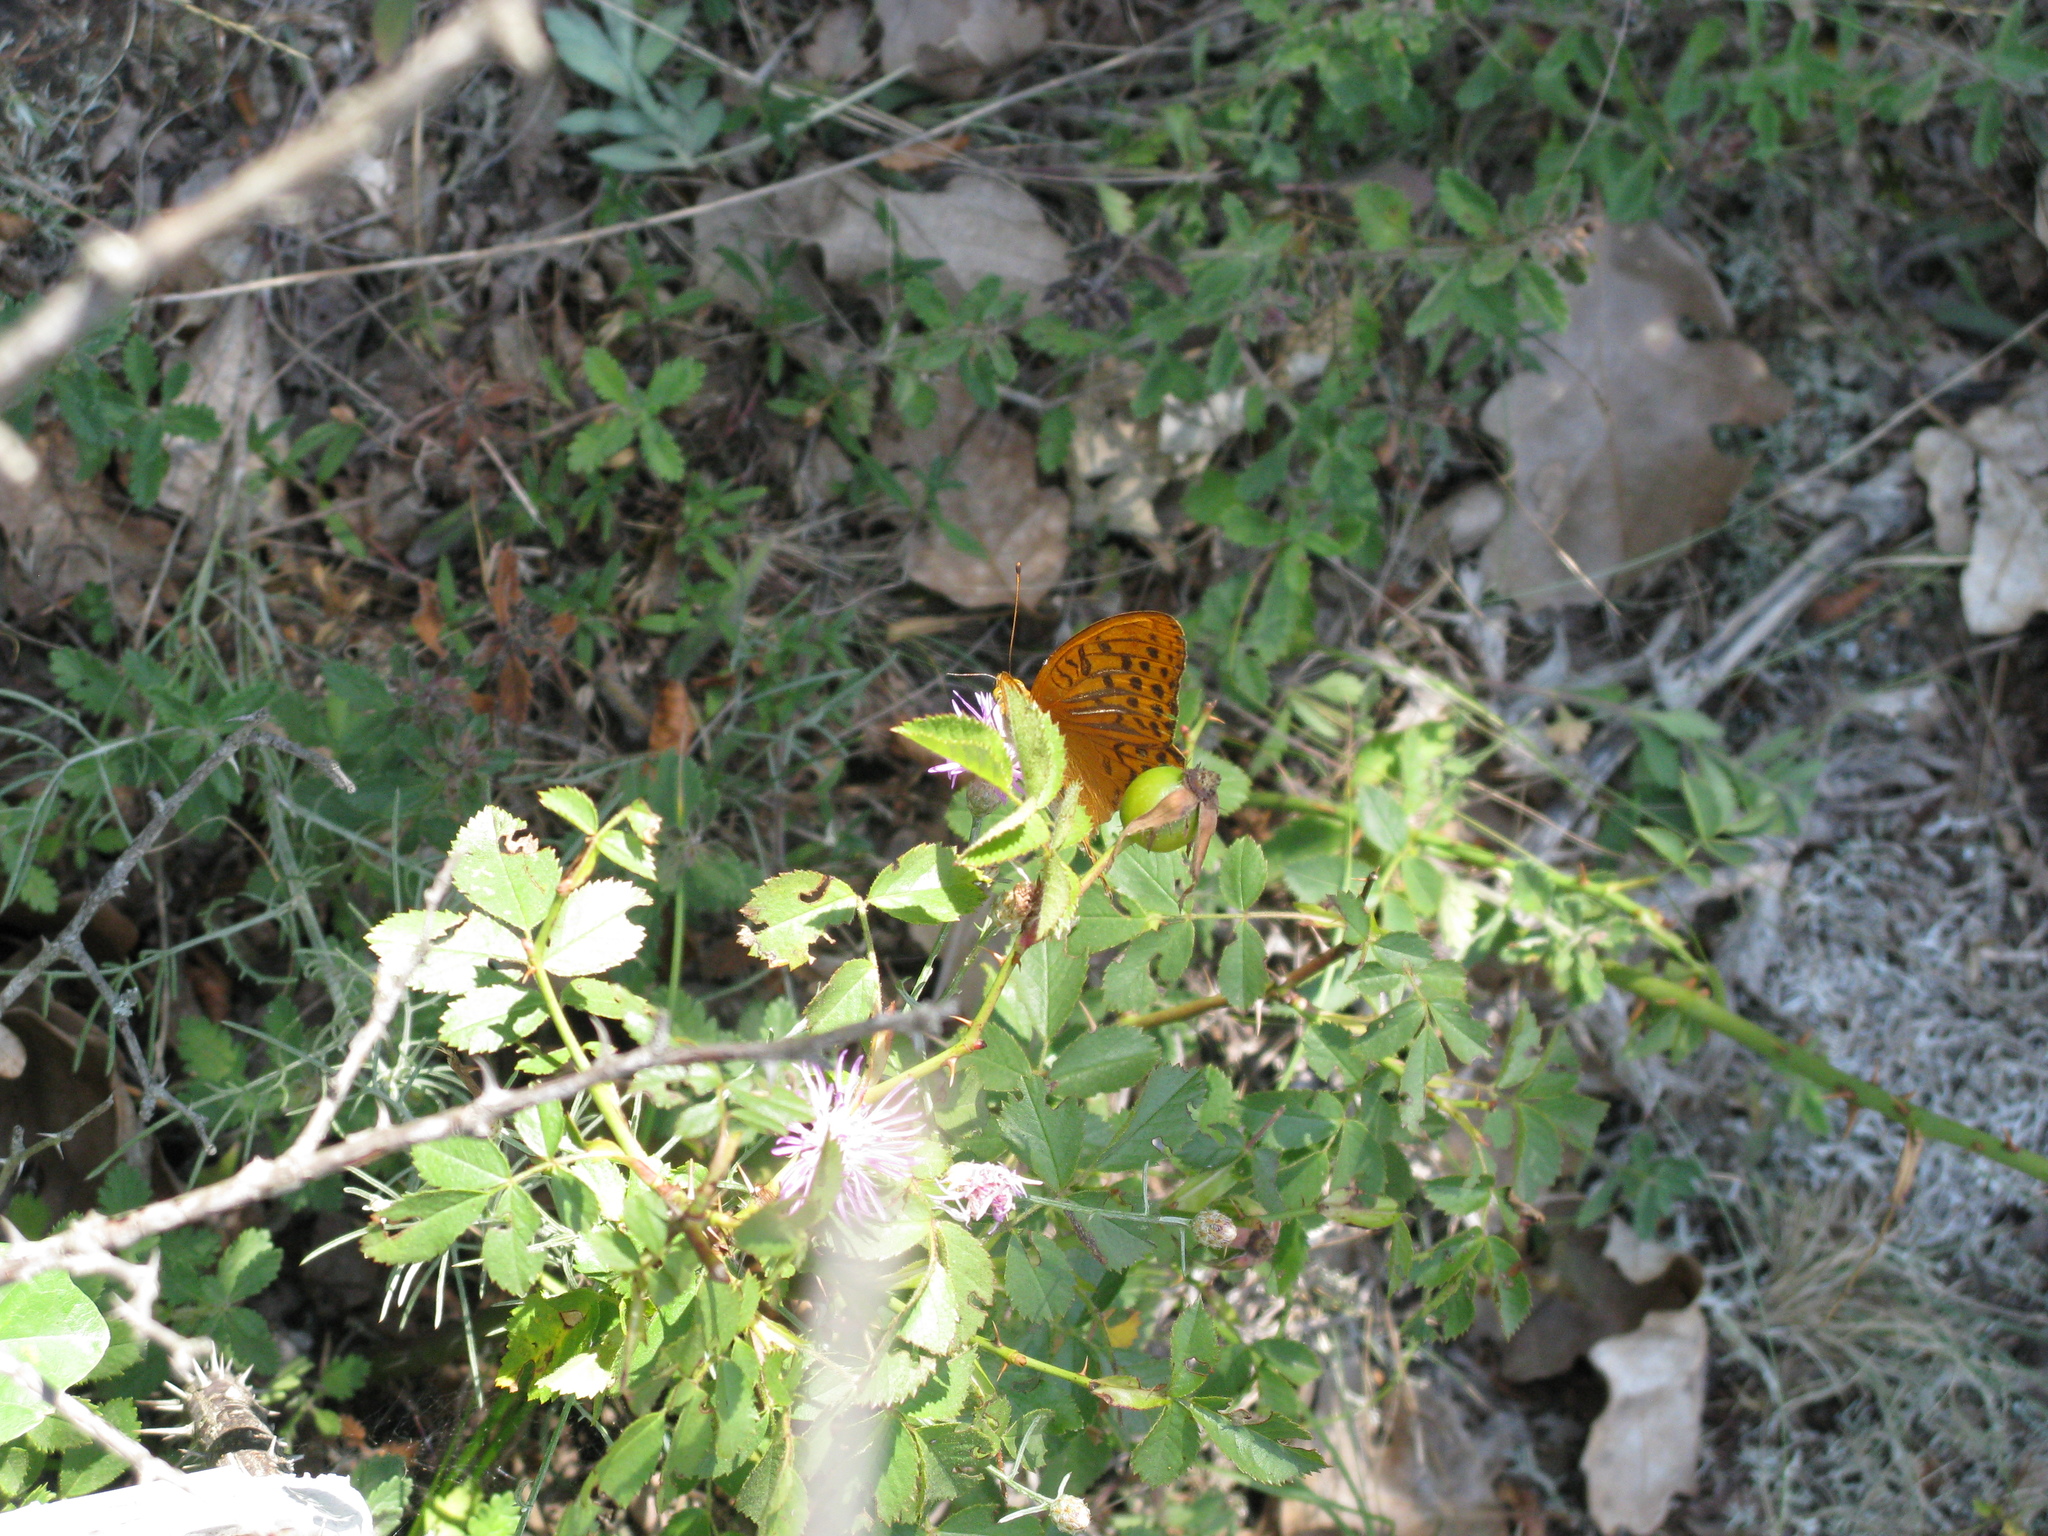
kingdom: Animalia
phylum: Arthropoda
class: Insecta
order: Lepidoptera
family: Nymphalidae
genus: Argynnis
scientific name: Argynnis paphia
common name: Silver-washed fritillary
